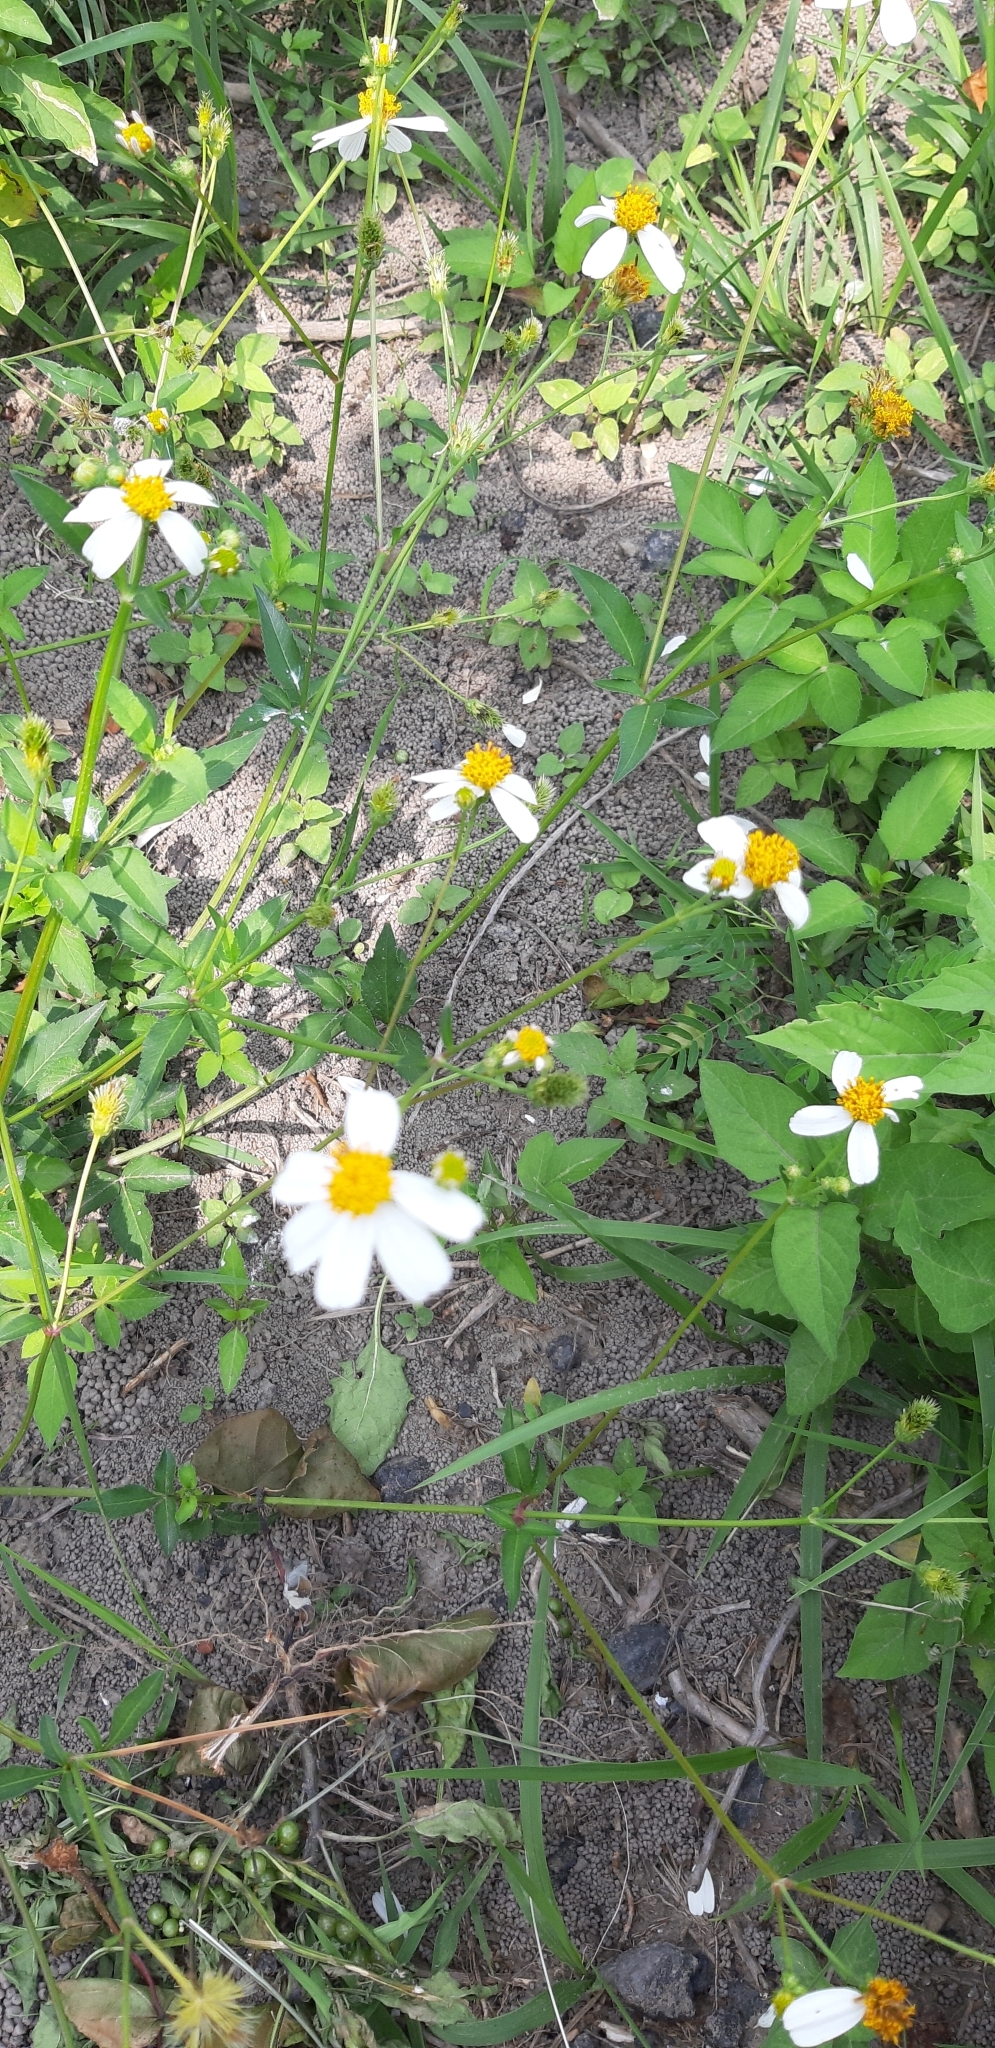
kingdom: Plantae
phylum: Tracheophyta
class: Magnoliopsida
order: Asterales
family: Asteraceae
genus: Bidens
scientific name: Bidens alba
